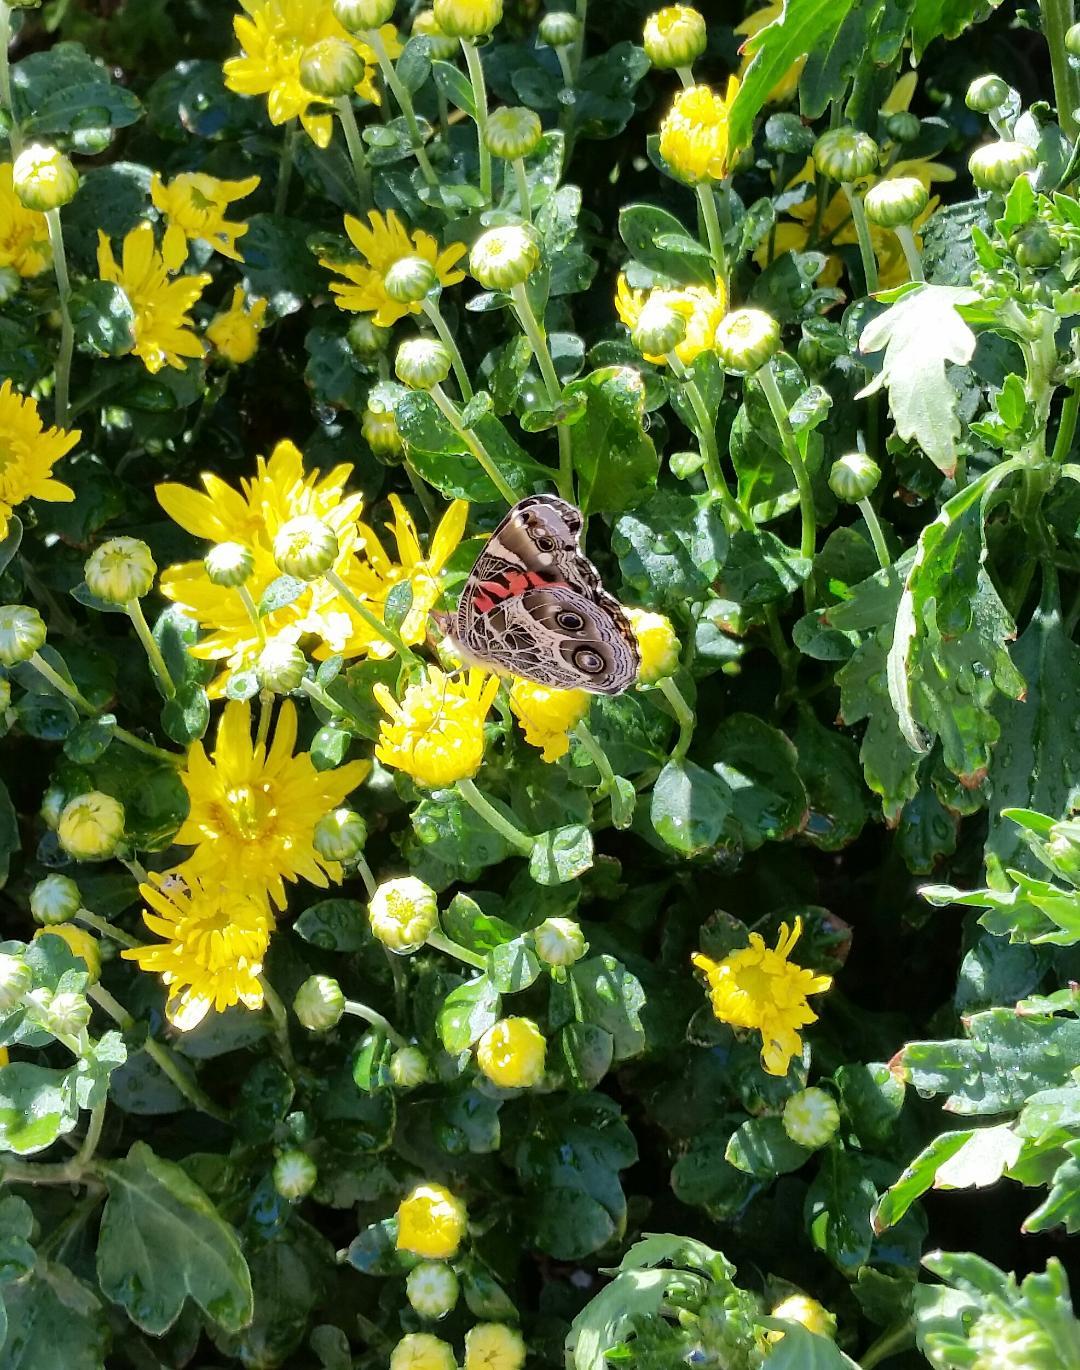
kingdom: Animalia
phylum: Arthropoda
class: Insecta
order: Lepidoptera
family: Nymphalidae
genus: Vanessa
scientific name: Vanessa virginiensis
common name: American lady
